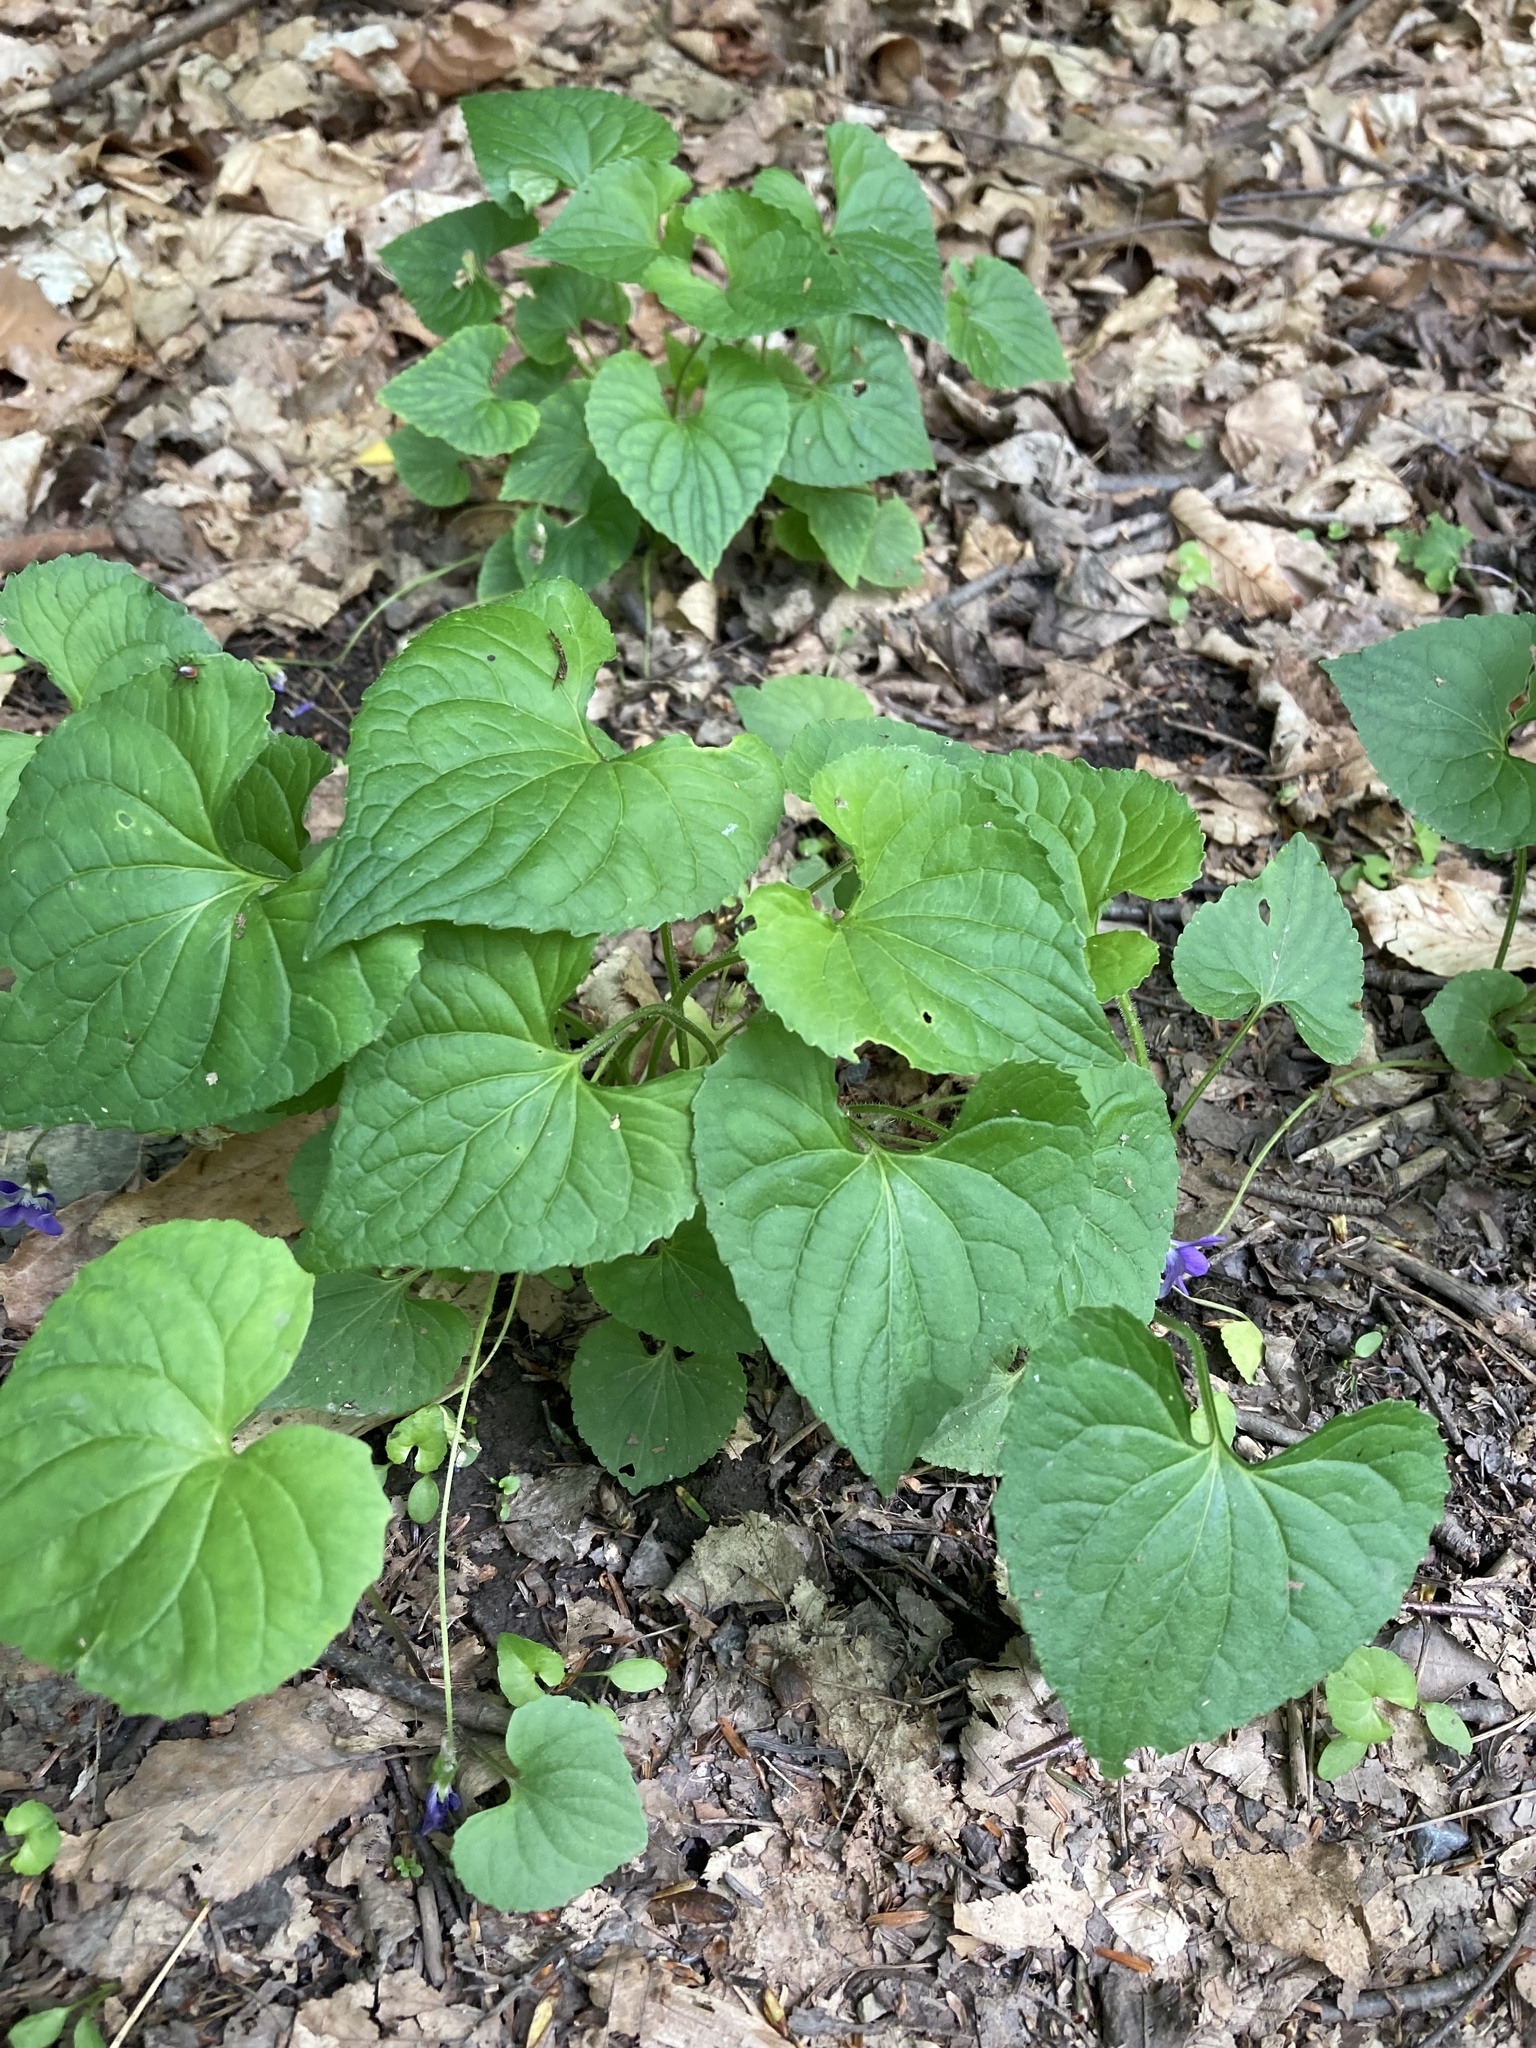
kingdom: Plantae
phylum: Tracheophyta
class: Magnoliopsida
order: Malpighiales
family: Violaceae
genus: Viola
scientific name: Viola sororia
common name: Dooryard violet
